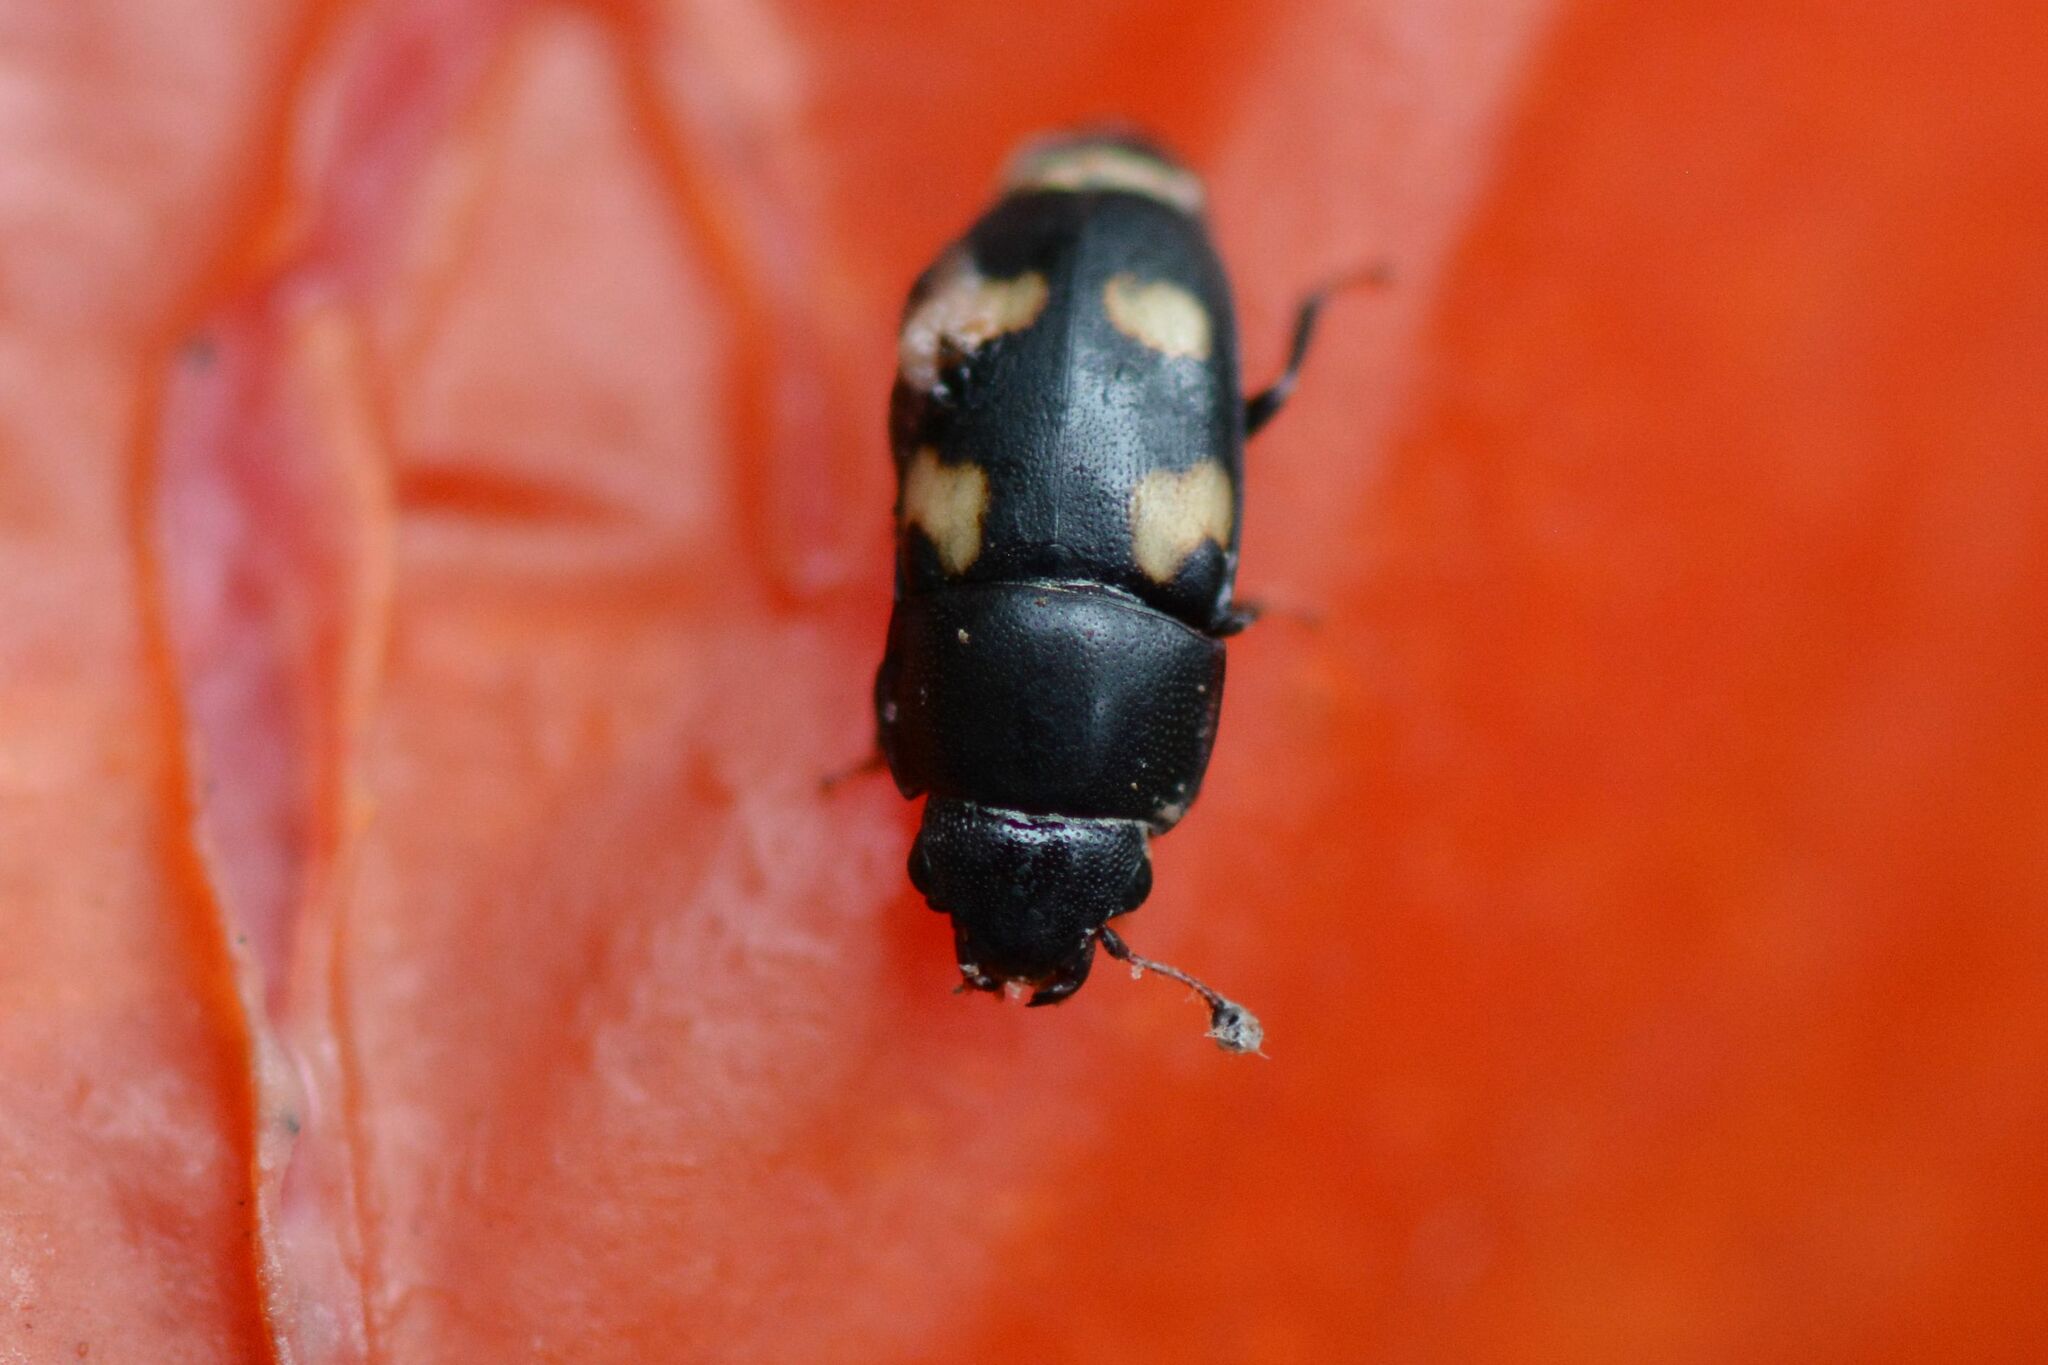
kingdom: Animalia
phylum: Arthropoda
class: Insecta
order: Coleoptera
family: Nitidulidae
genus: Glischrochilus
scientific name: Glischrochilus quadrisignatus
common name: Picnic beetle
